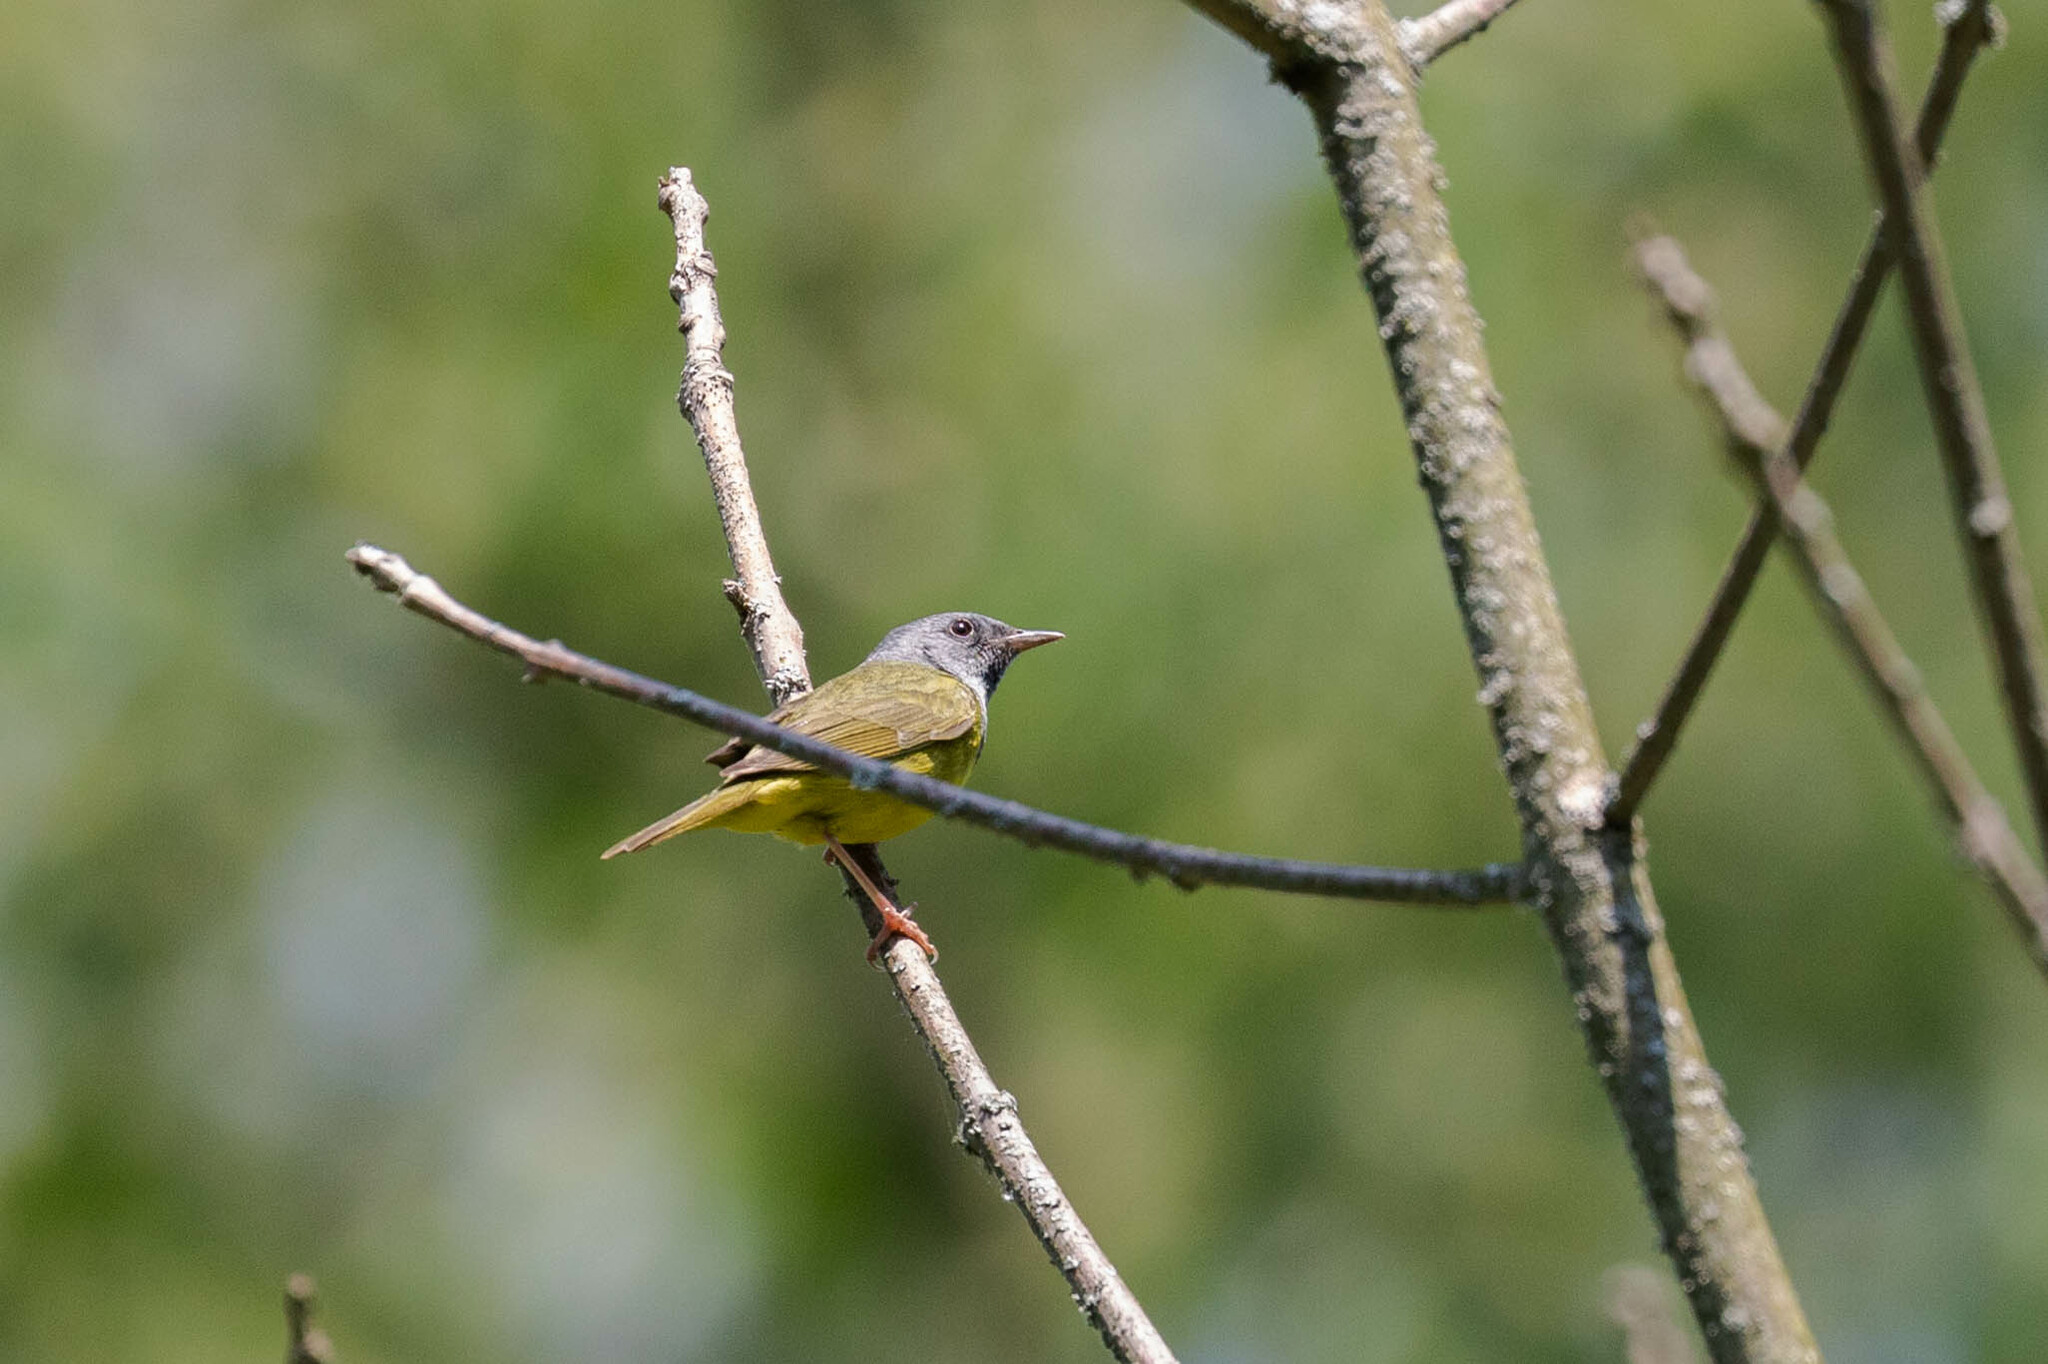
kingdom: Animalia
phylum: Chordata
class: Aves
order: Passeriformes
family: Parulidae
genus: Geothlypis
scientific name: Geothlypis philadelphia
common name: Mourning warbler
